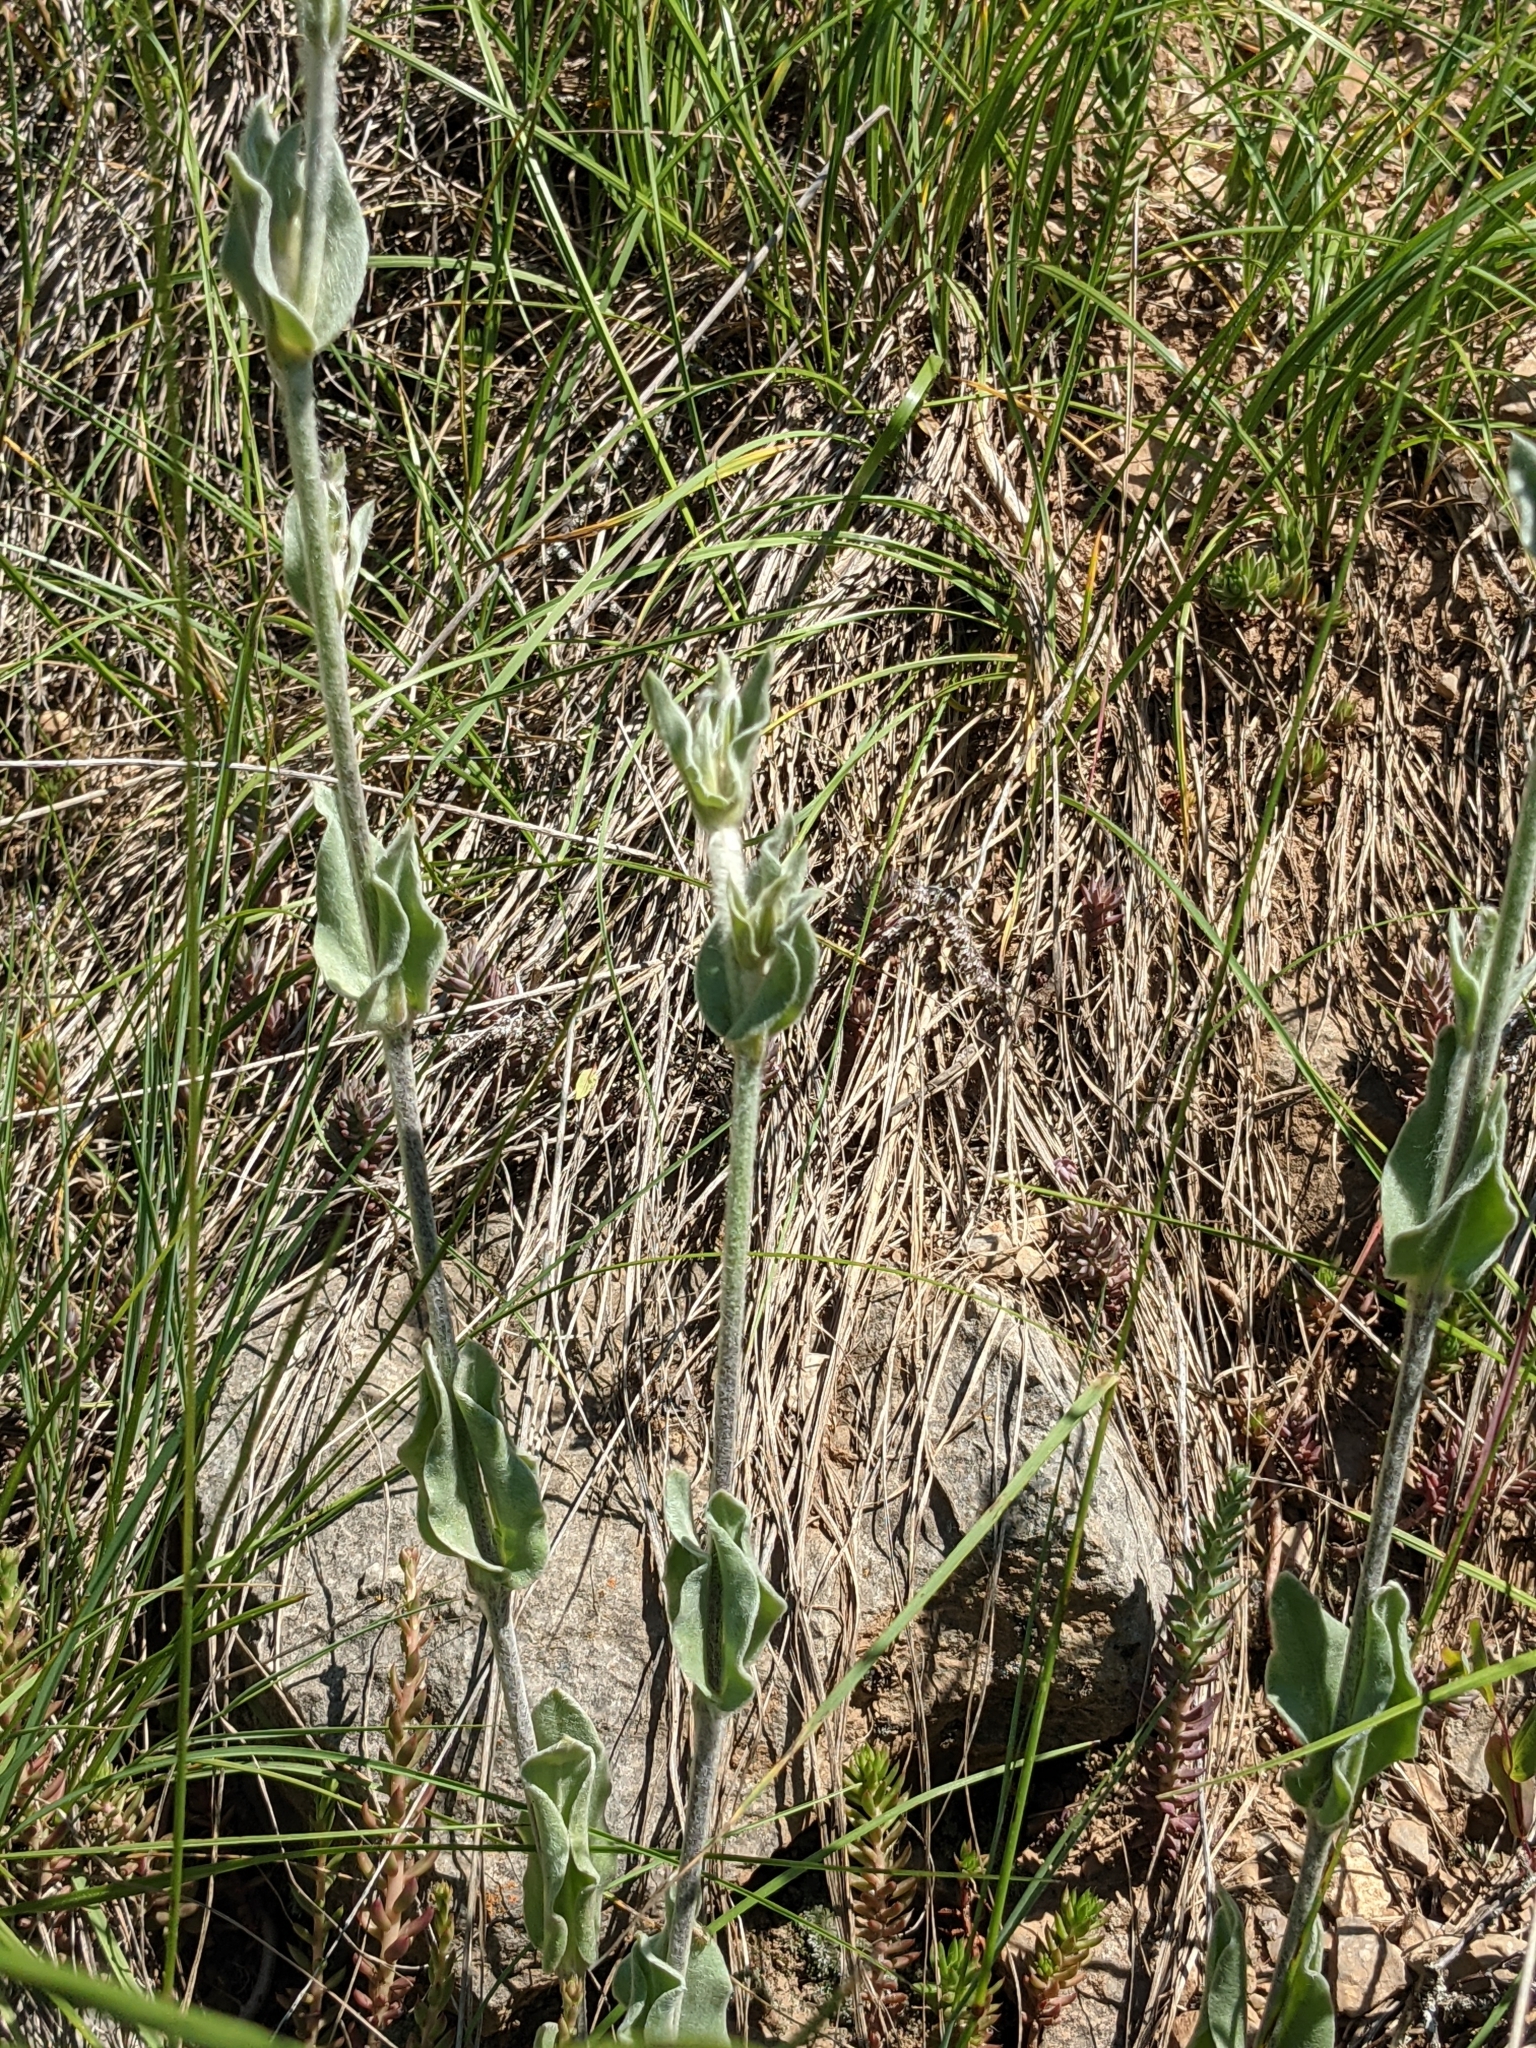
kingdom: Plantae
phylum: Tracheophyta
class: Magnoliopsida
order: Caryophyllales
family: Caryophyllaceae
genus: Silene
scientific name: Silene coronaria
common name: Rose campion
